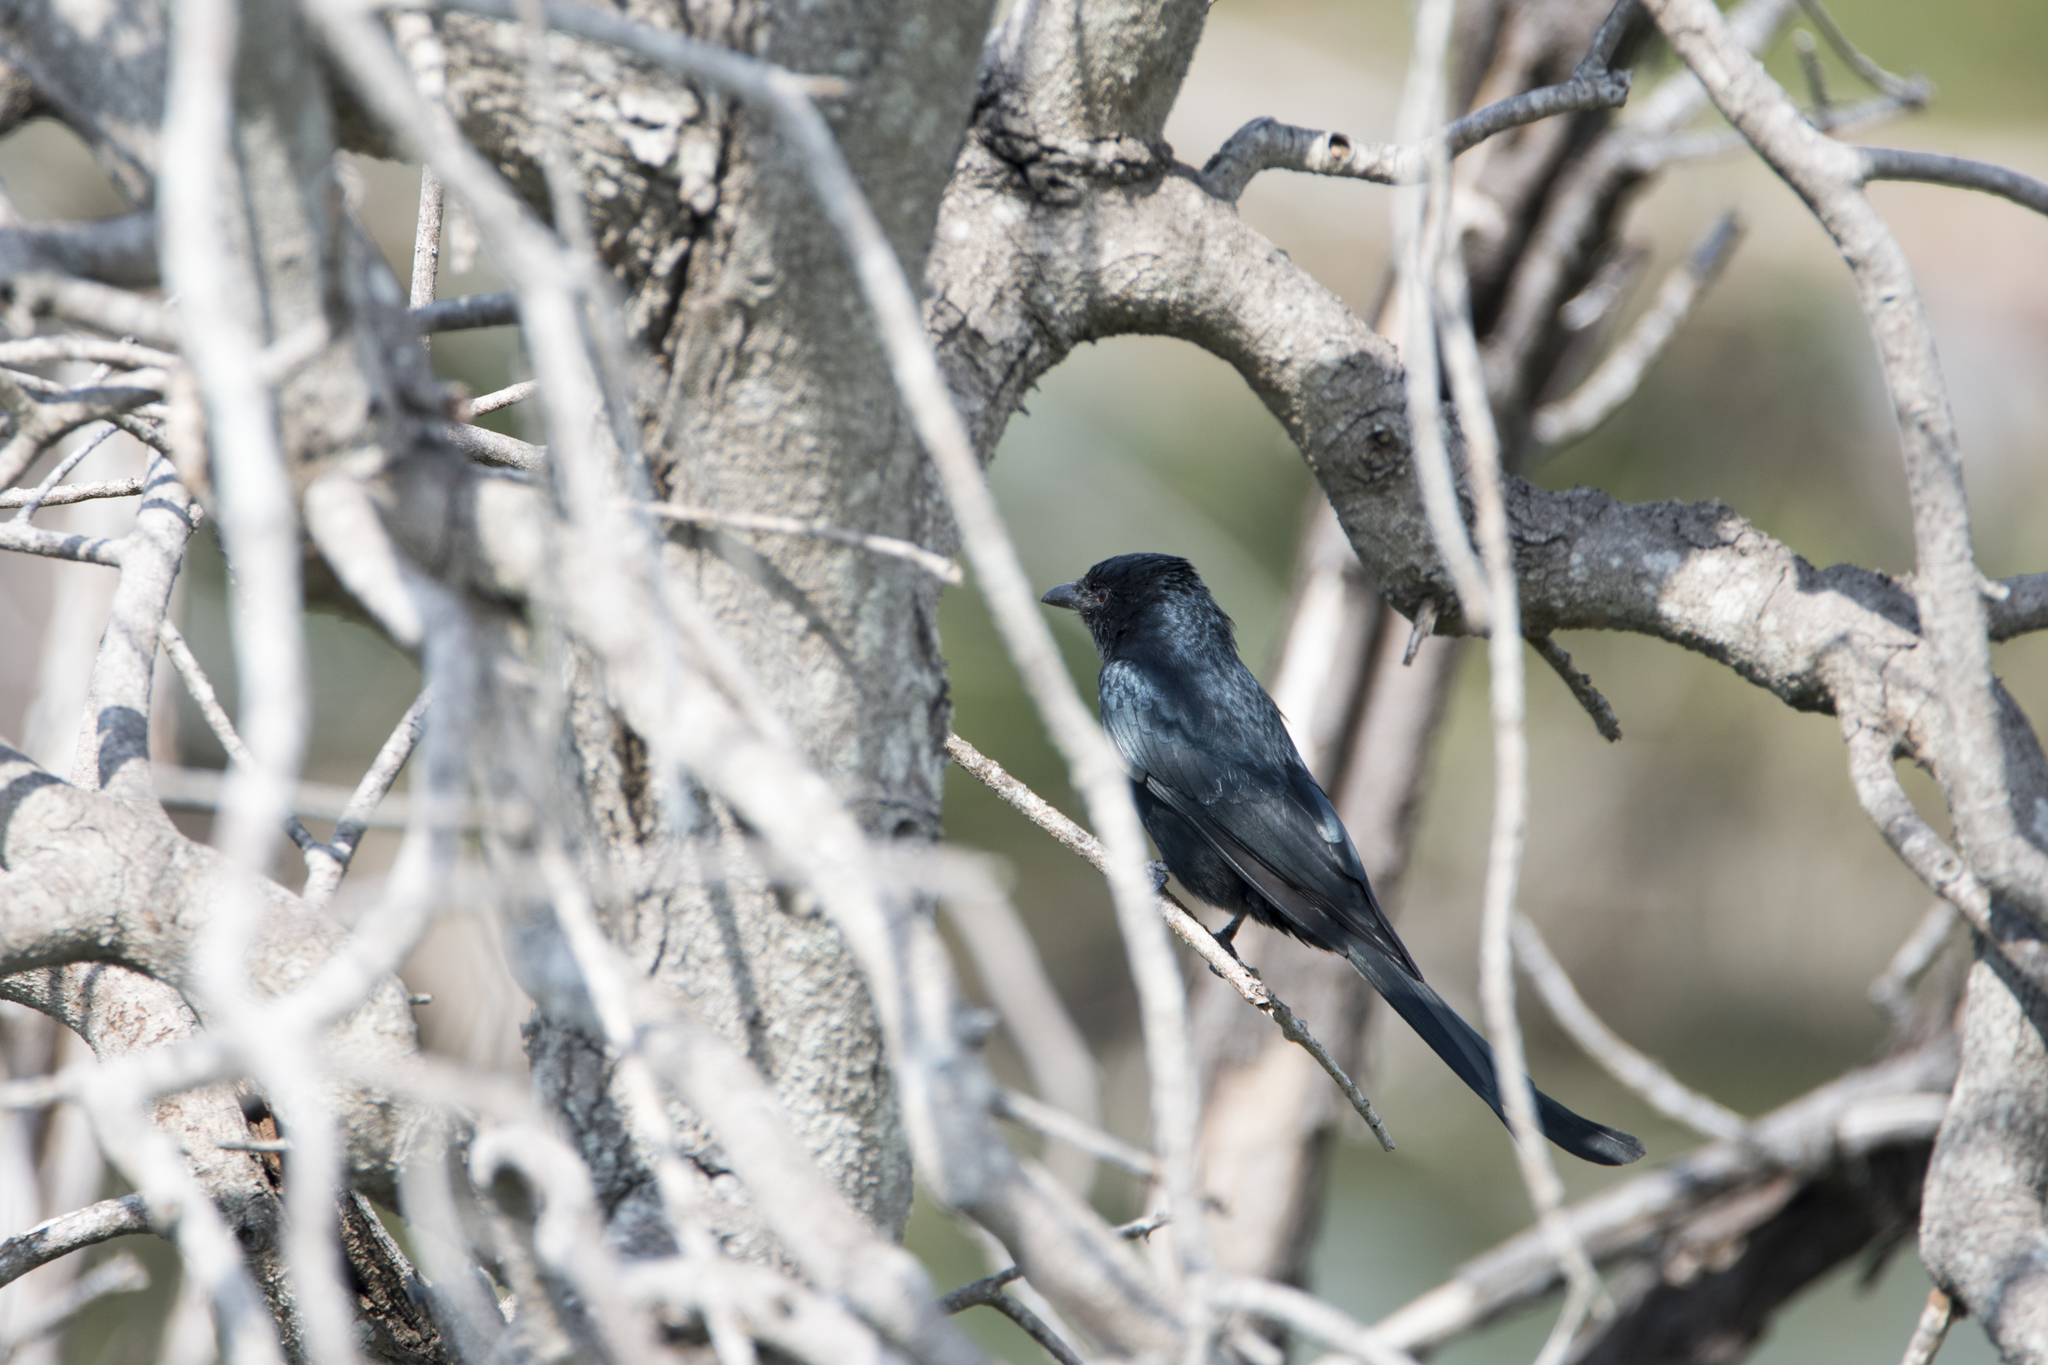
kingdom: Animalia
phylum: Chordata
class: Aves
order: Passeriformes
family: Dicruridae
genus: Dicrurus
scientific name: Dicrurus macrocercus
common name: Black drongo
